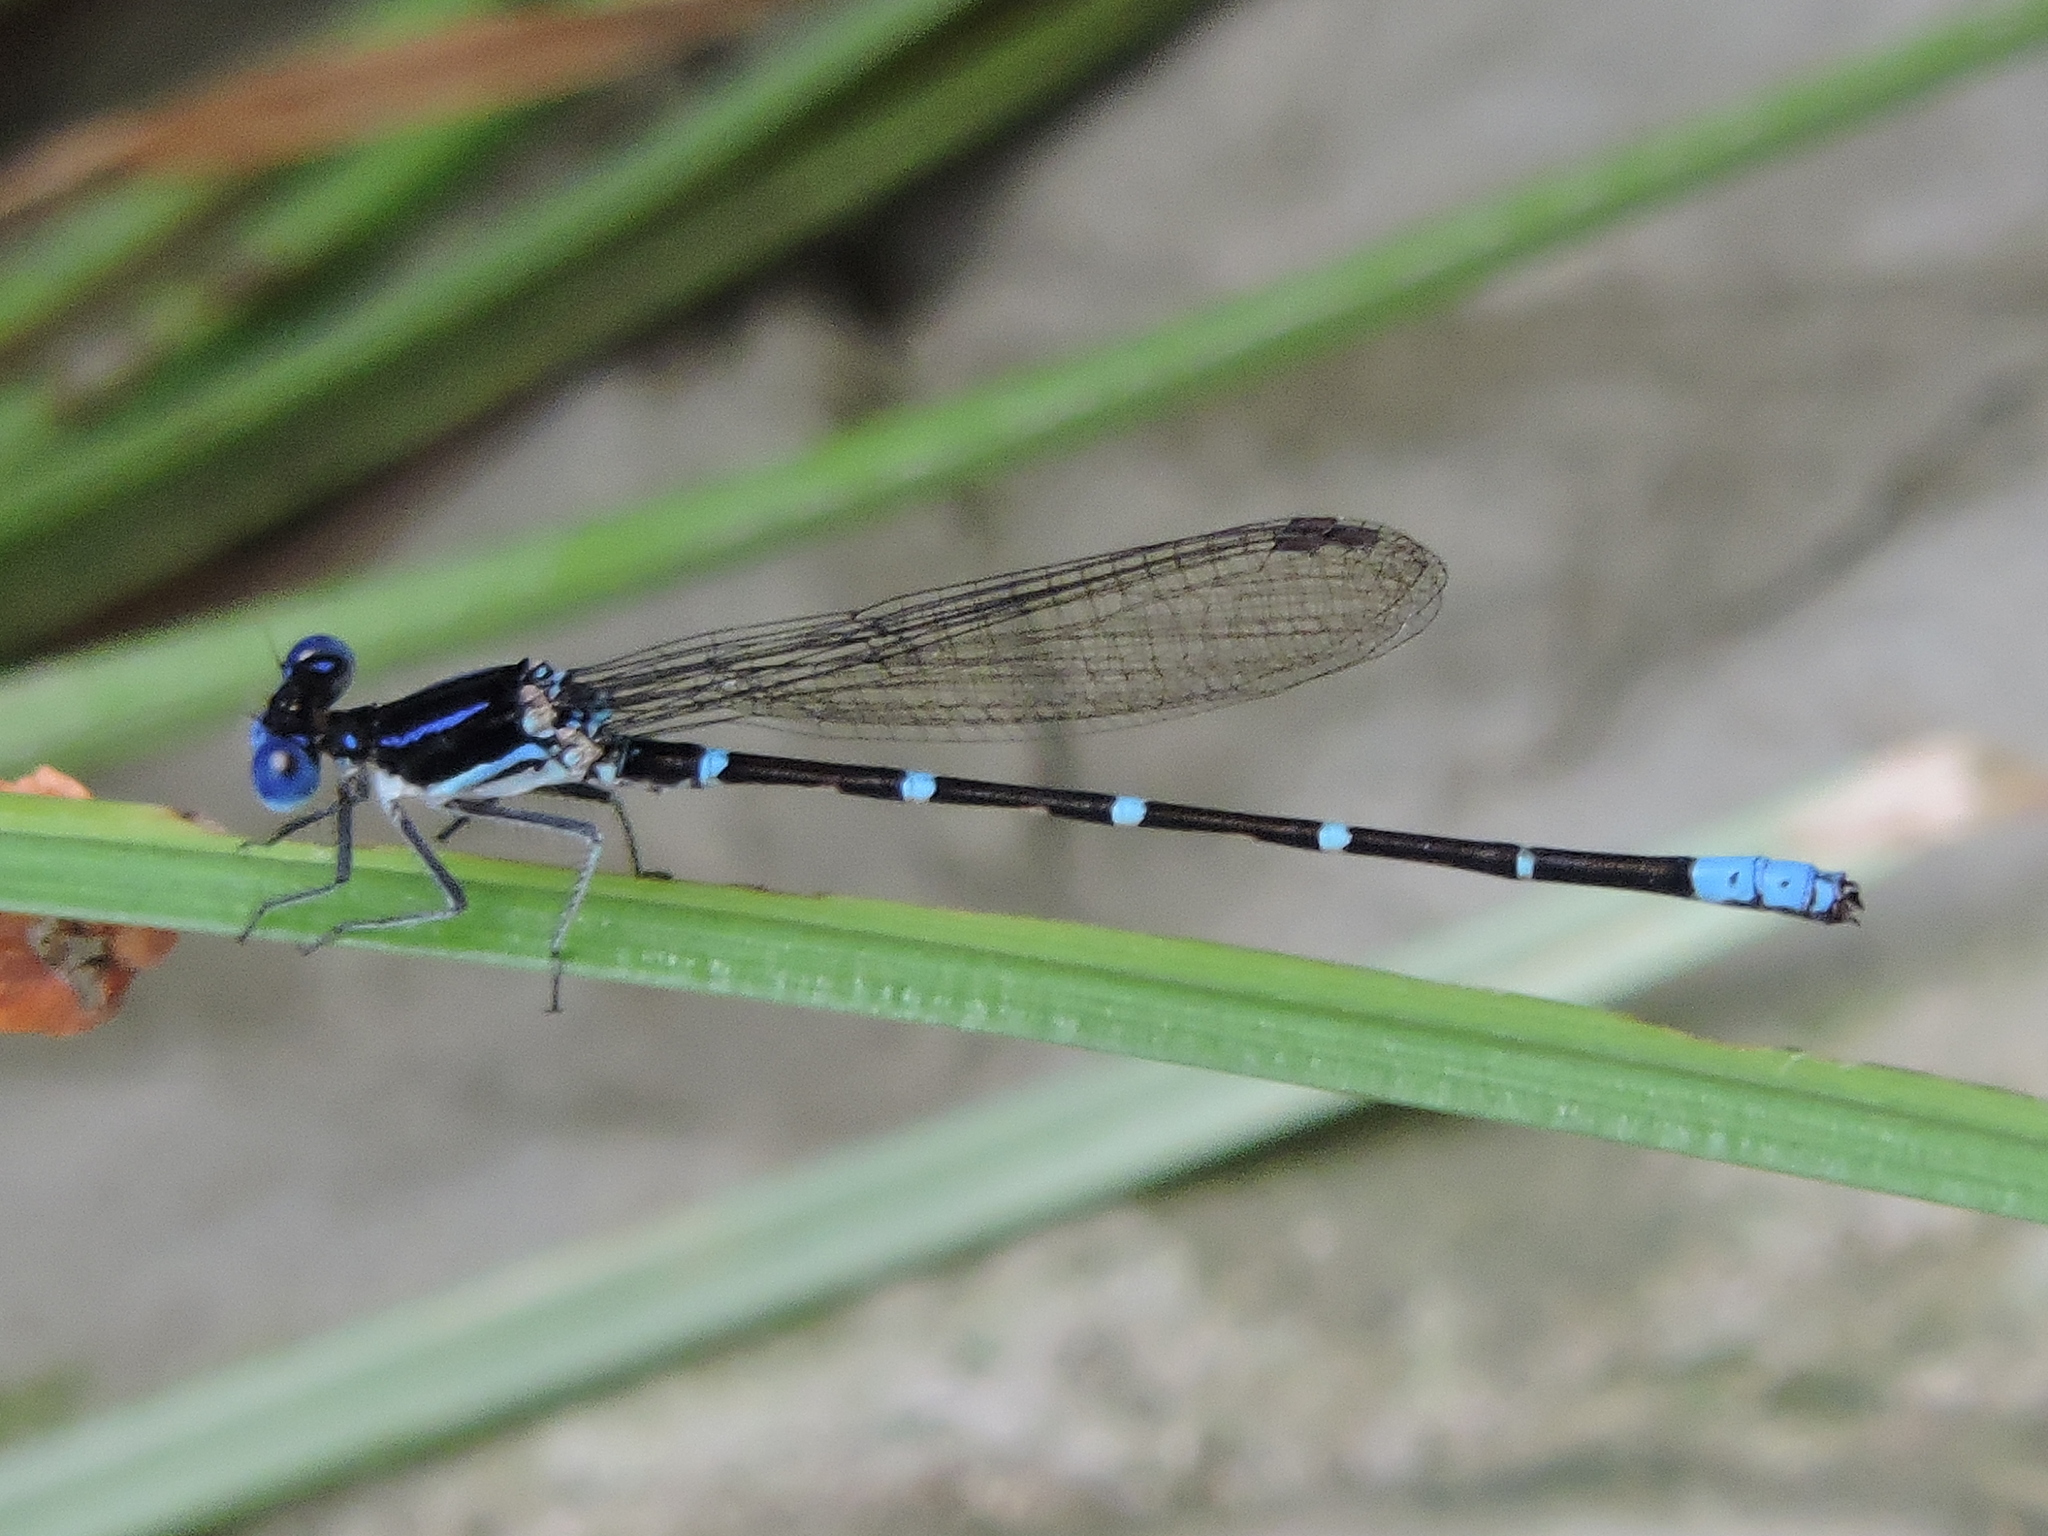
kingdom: Animalia
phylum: Arthropoda
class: Insecta
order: Odonata
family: Coenagrionidae
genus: Argia
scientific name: Argia sedula
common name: Blue-ringed dancer
